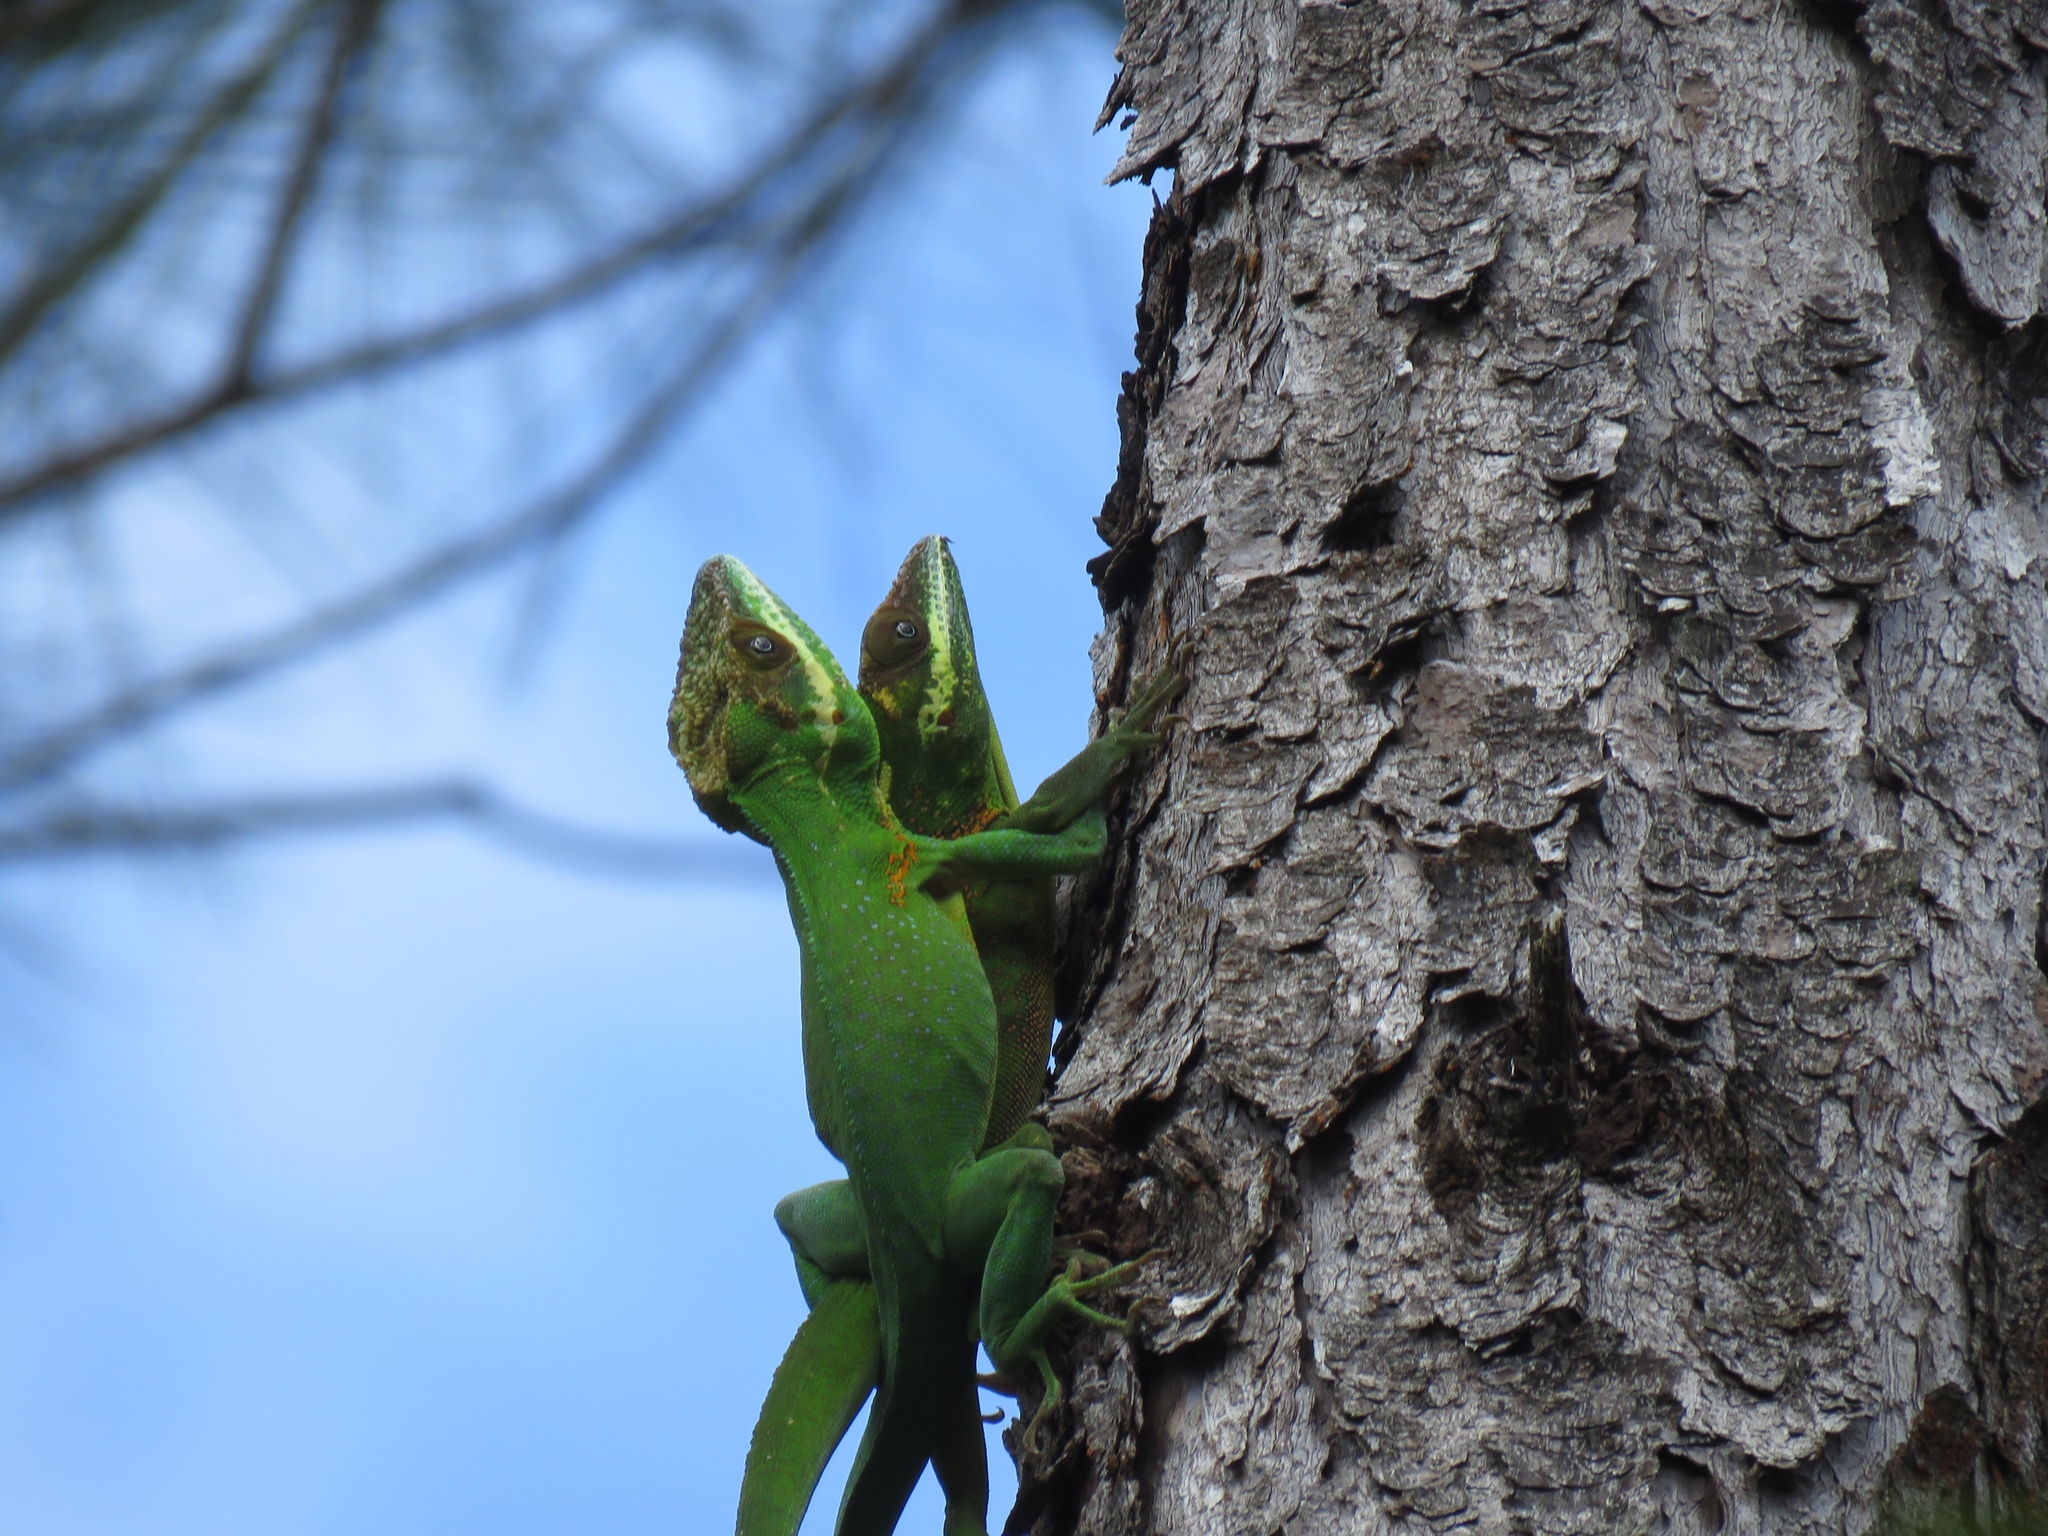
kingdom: Animalia
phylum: Chordata
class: Squamata
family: Dactyloidae
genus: Anolis
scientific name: Anolis noblei
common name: Holguin anole
